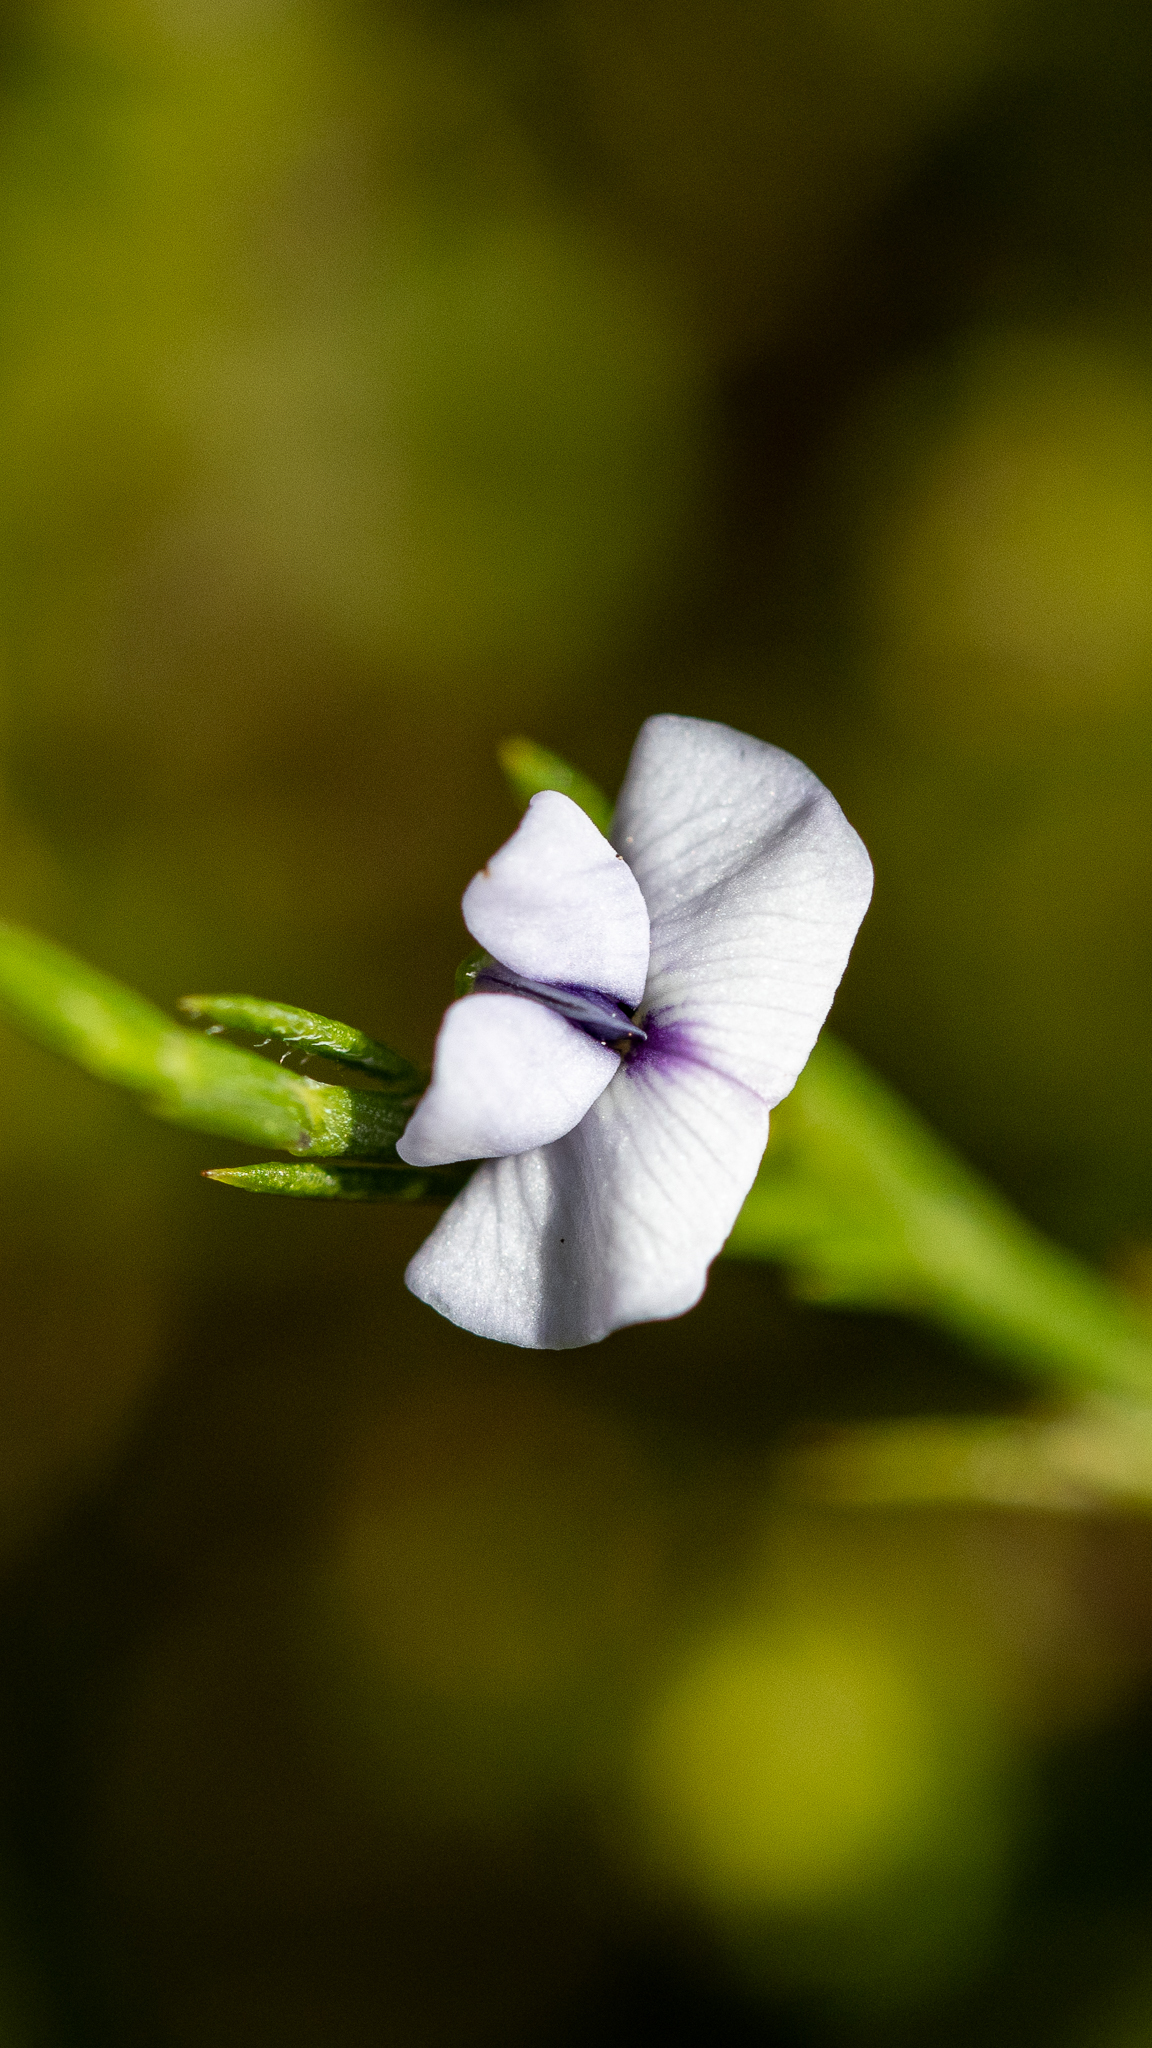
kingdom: Plantae
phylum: Tracheophyta
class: Magnoliopsida
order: Fabales
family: Fabaceae
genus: Psoralea
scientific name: Psoralea restioides
